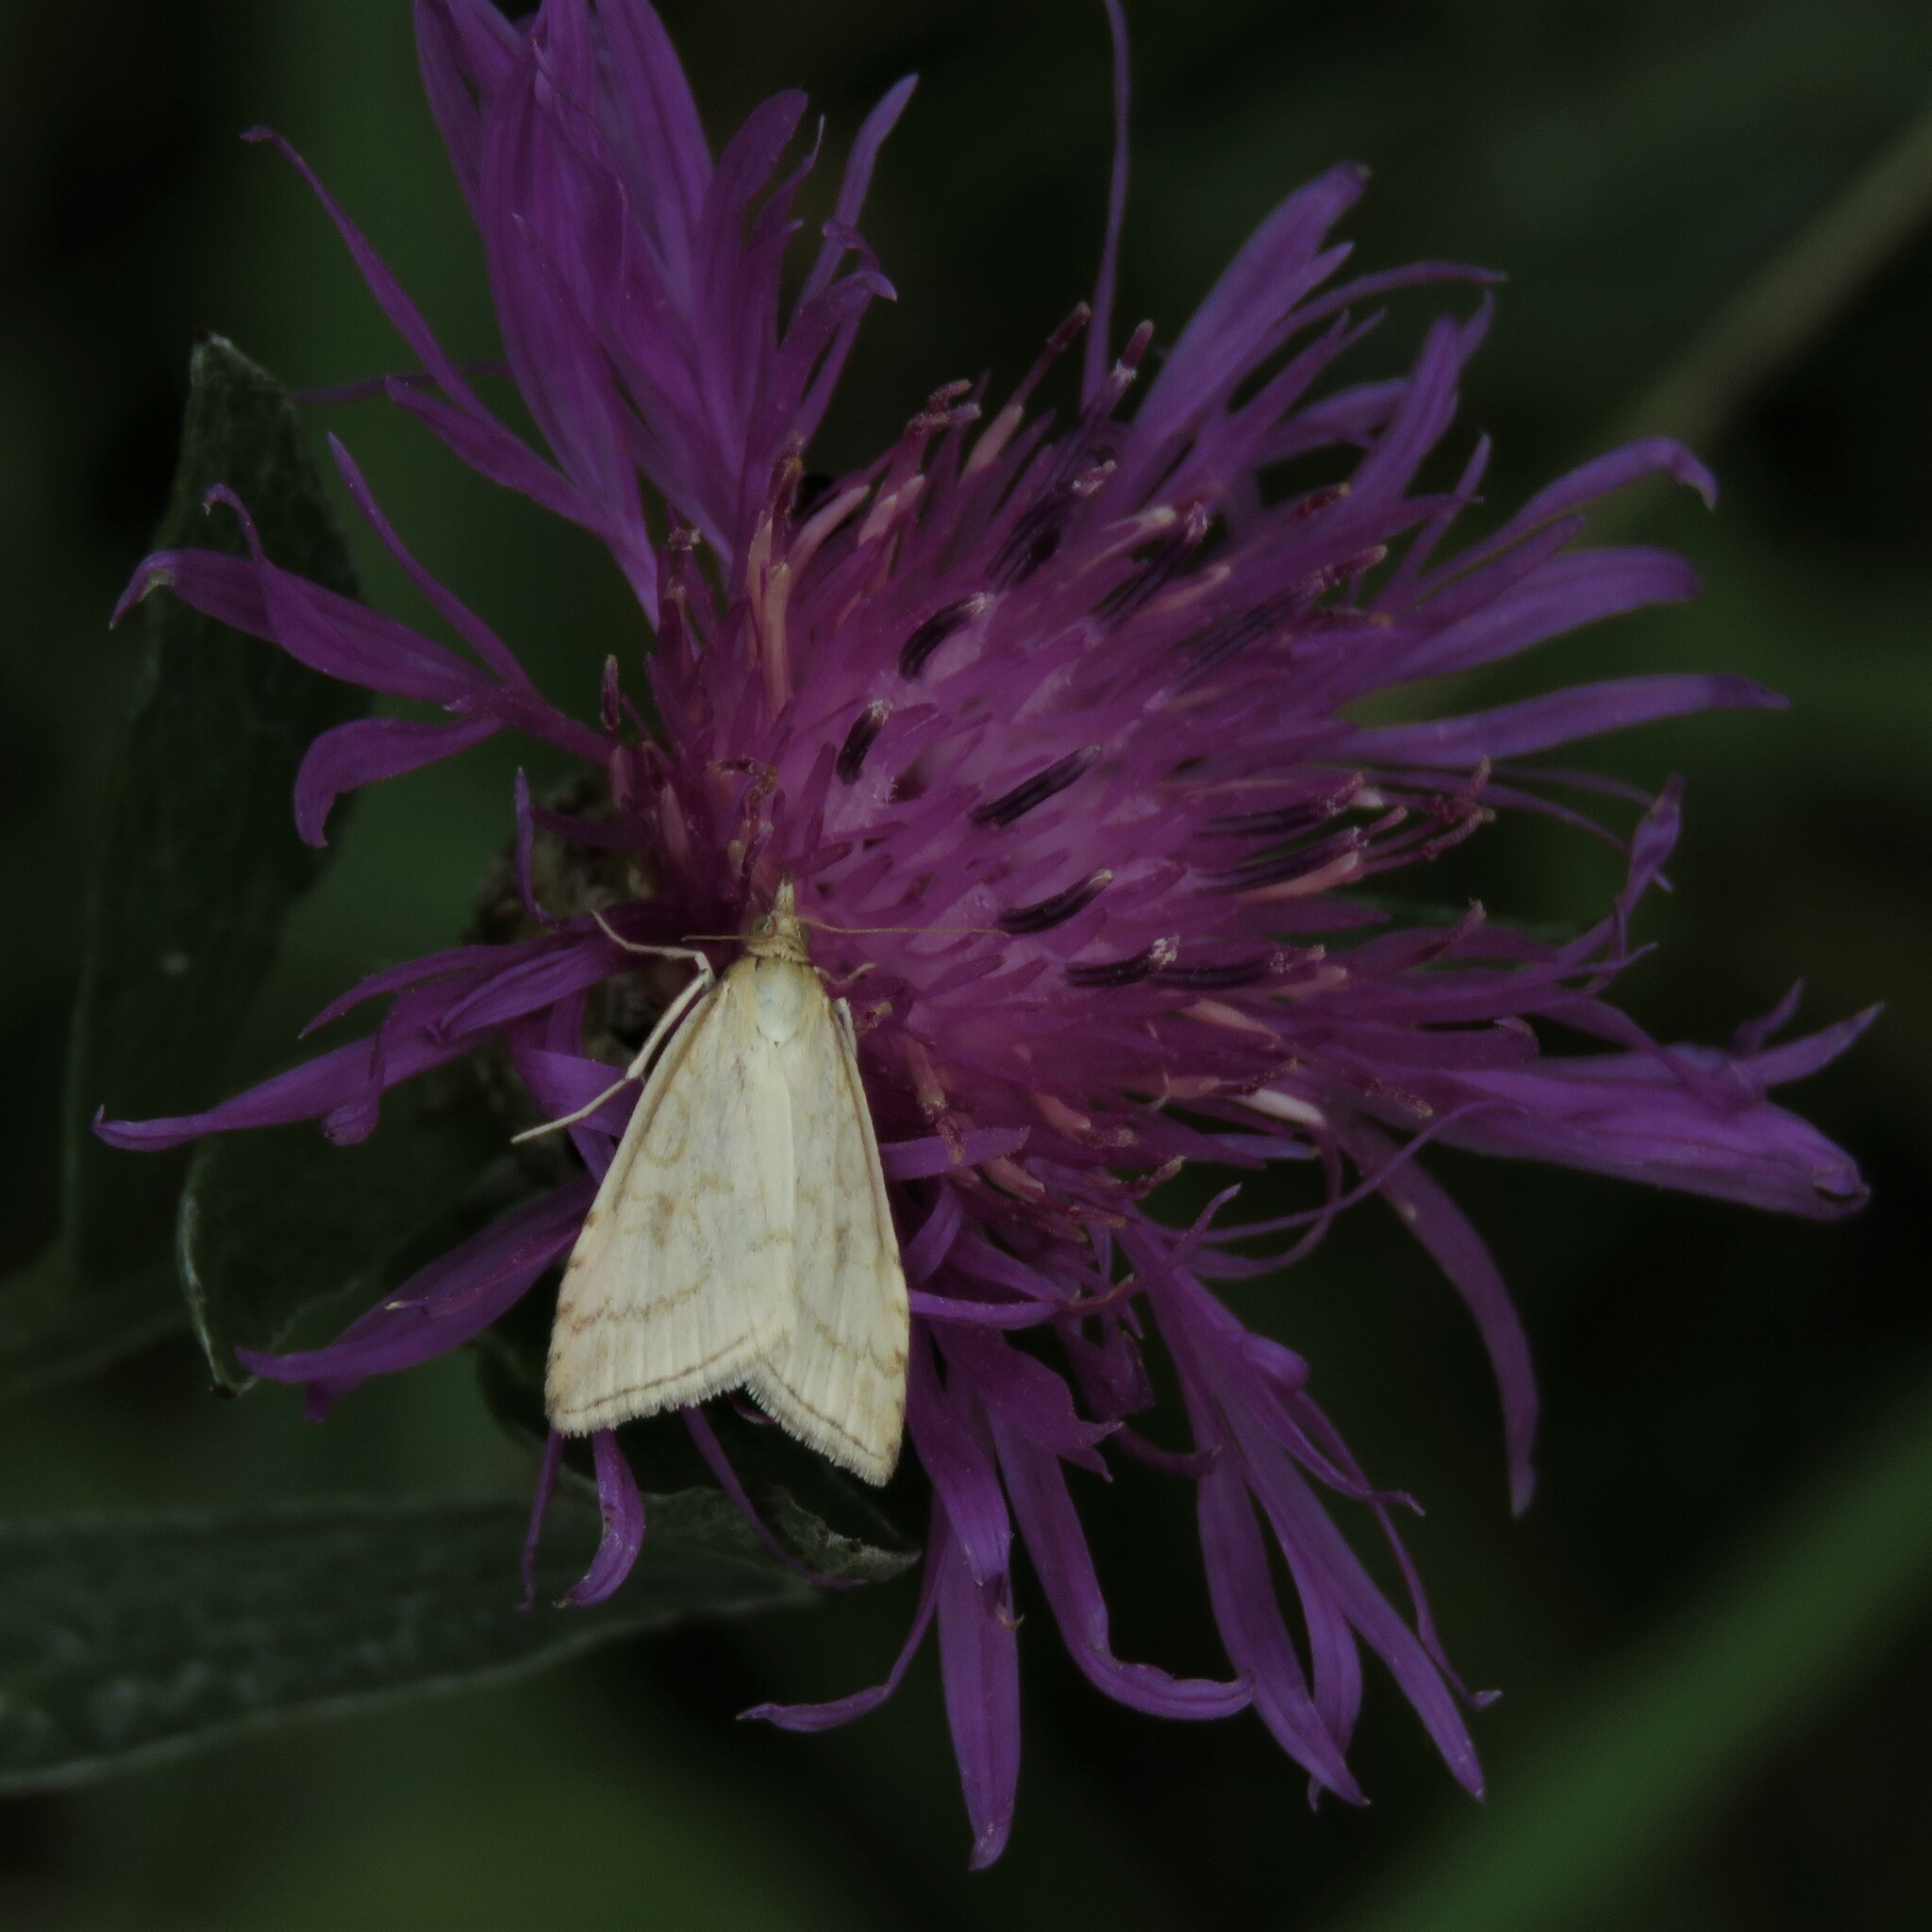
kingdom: Animalia
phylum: Arthropoda
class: Insecta
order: Lepidoptera
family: Crambidae
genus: Udea
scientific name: Udea lutealis
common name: Pale straw pearl
